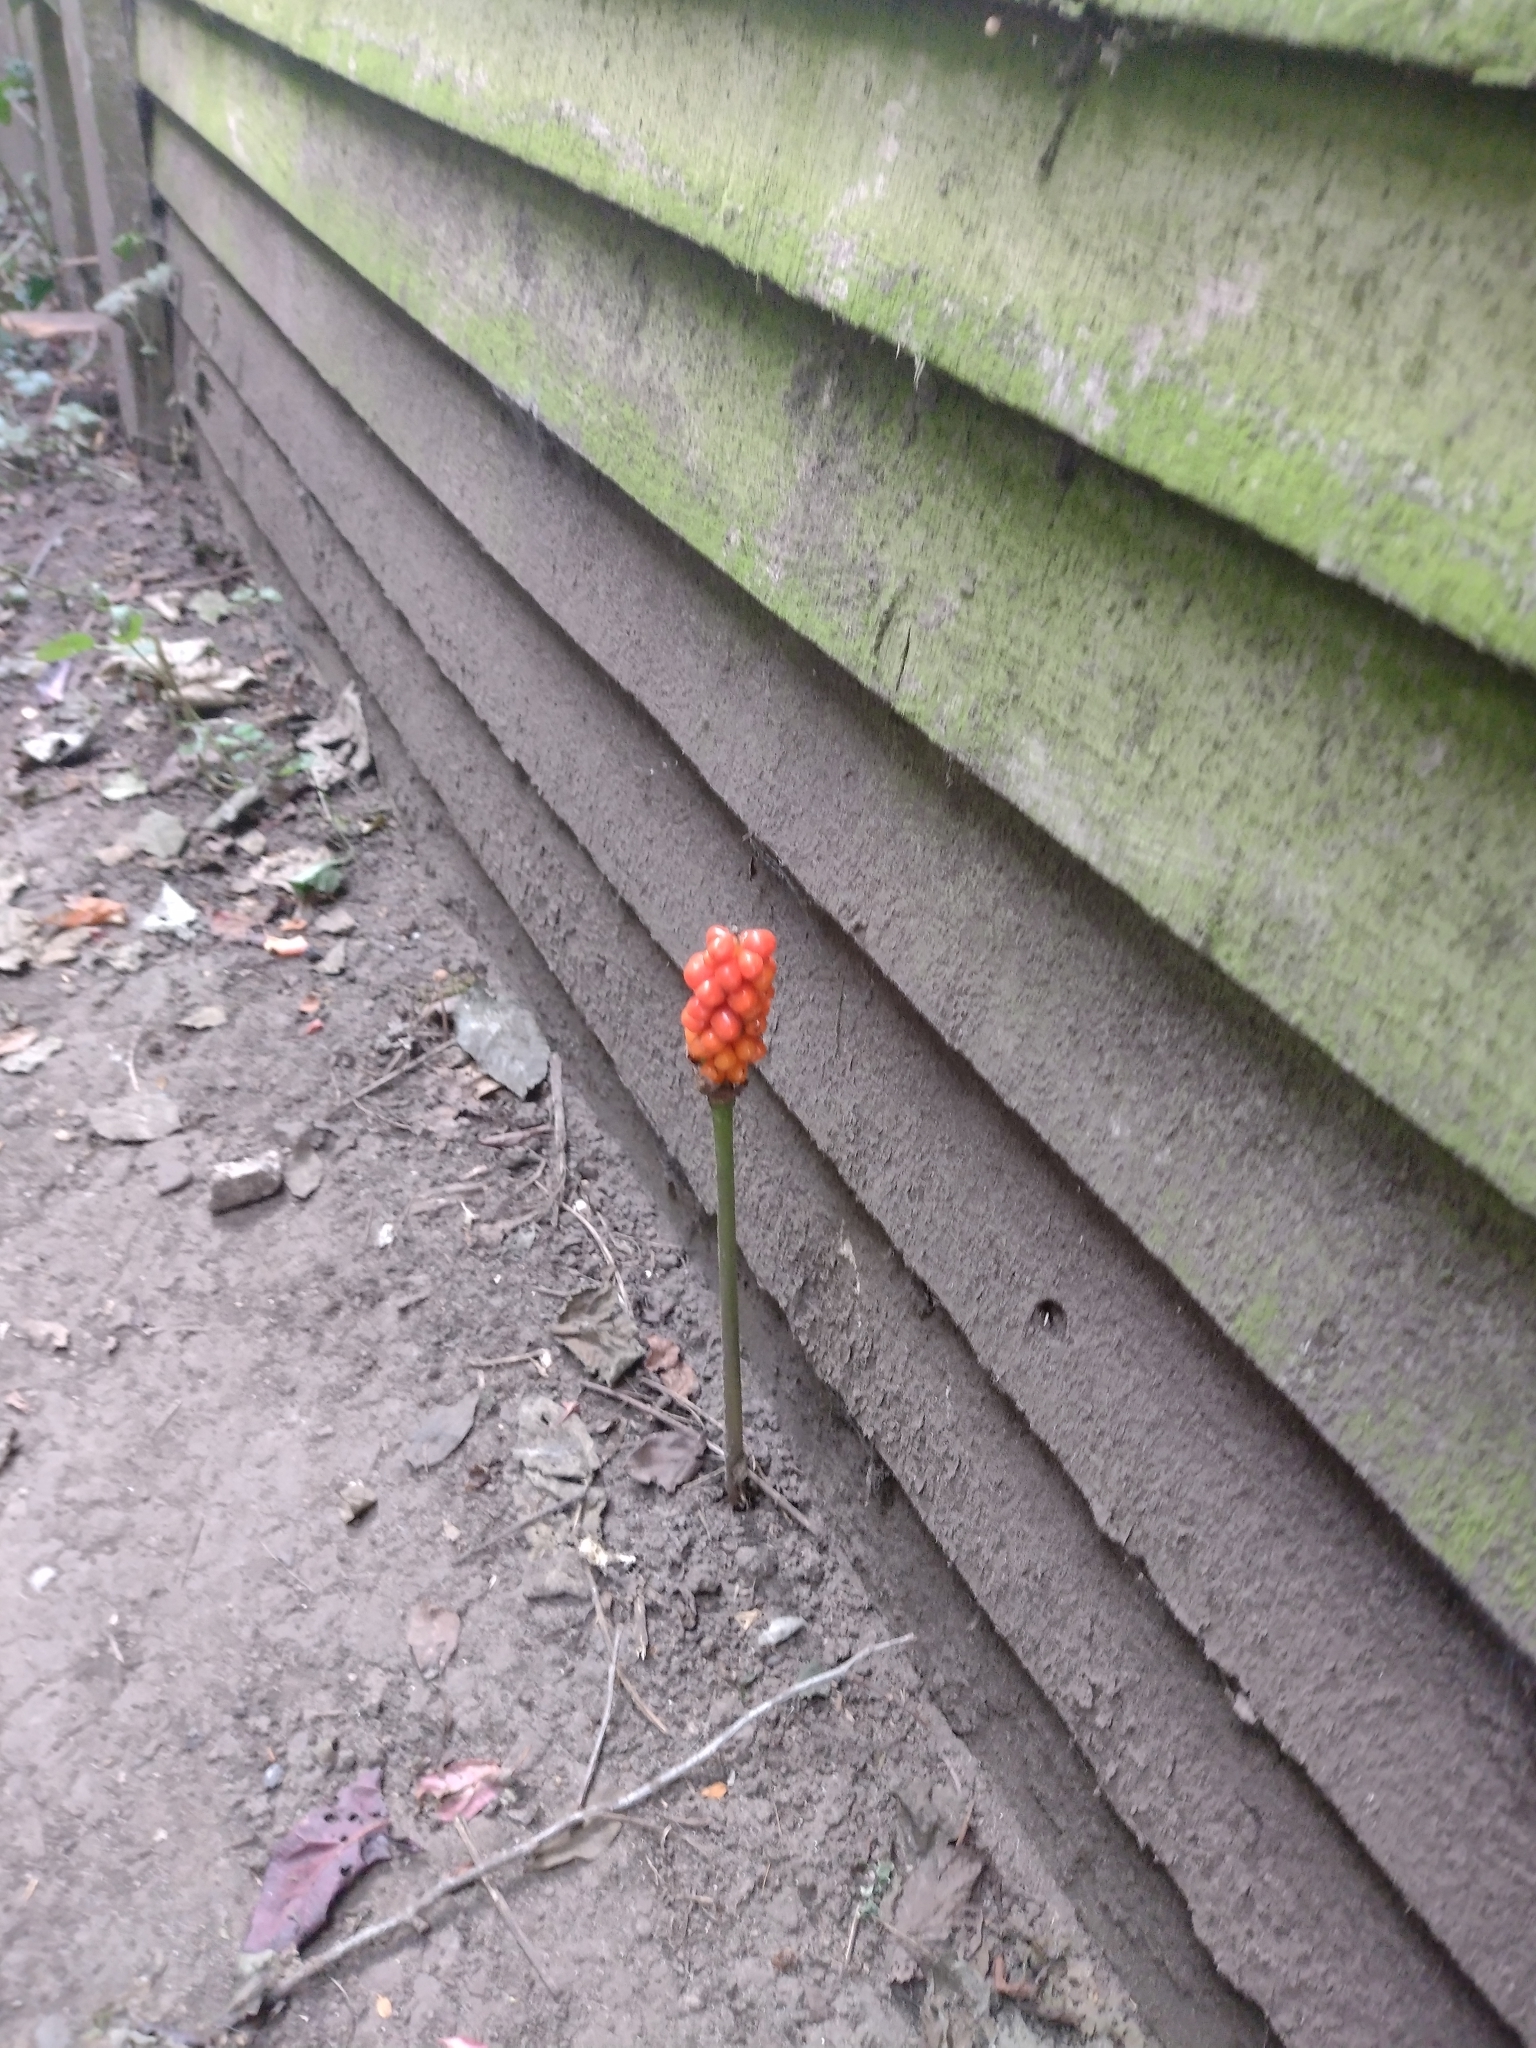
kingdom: Plantae
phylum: Tracheophyta
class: Liliopsida
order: Alismatales
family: Araceae
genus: Arum
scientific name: Arum maculatum
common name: Lords-and-ladies
